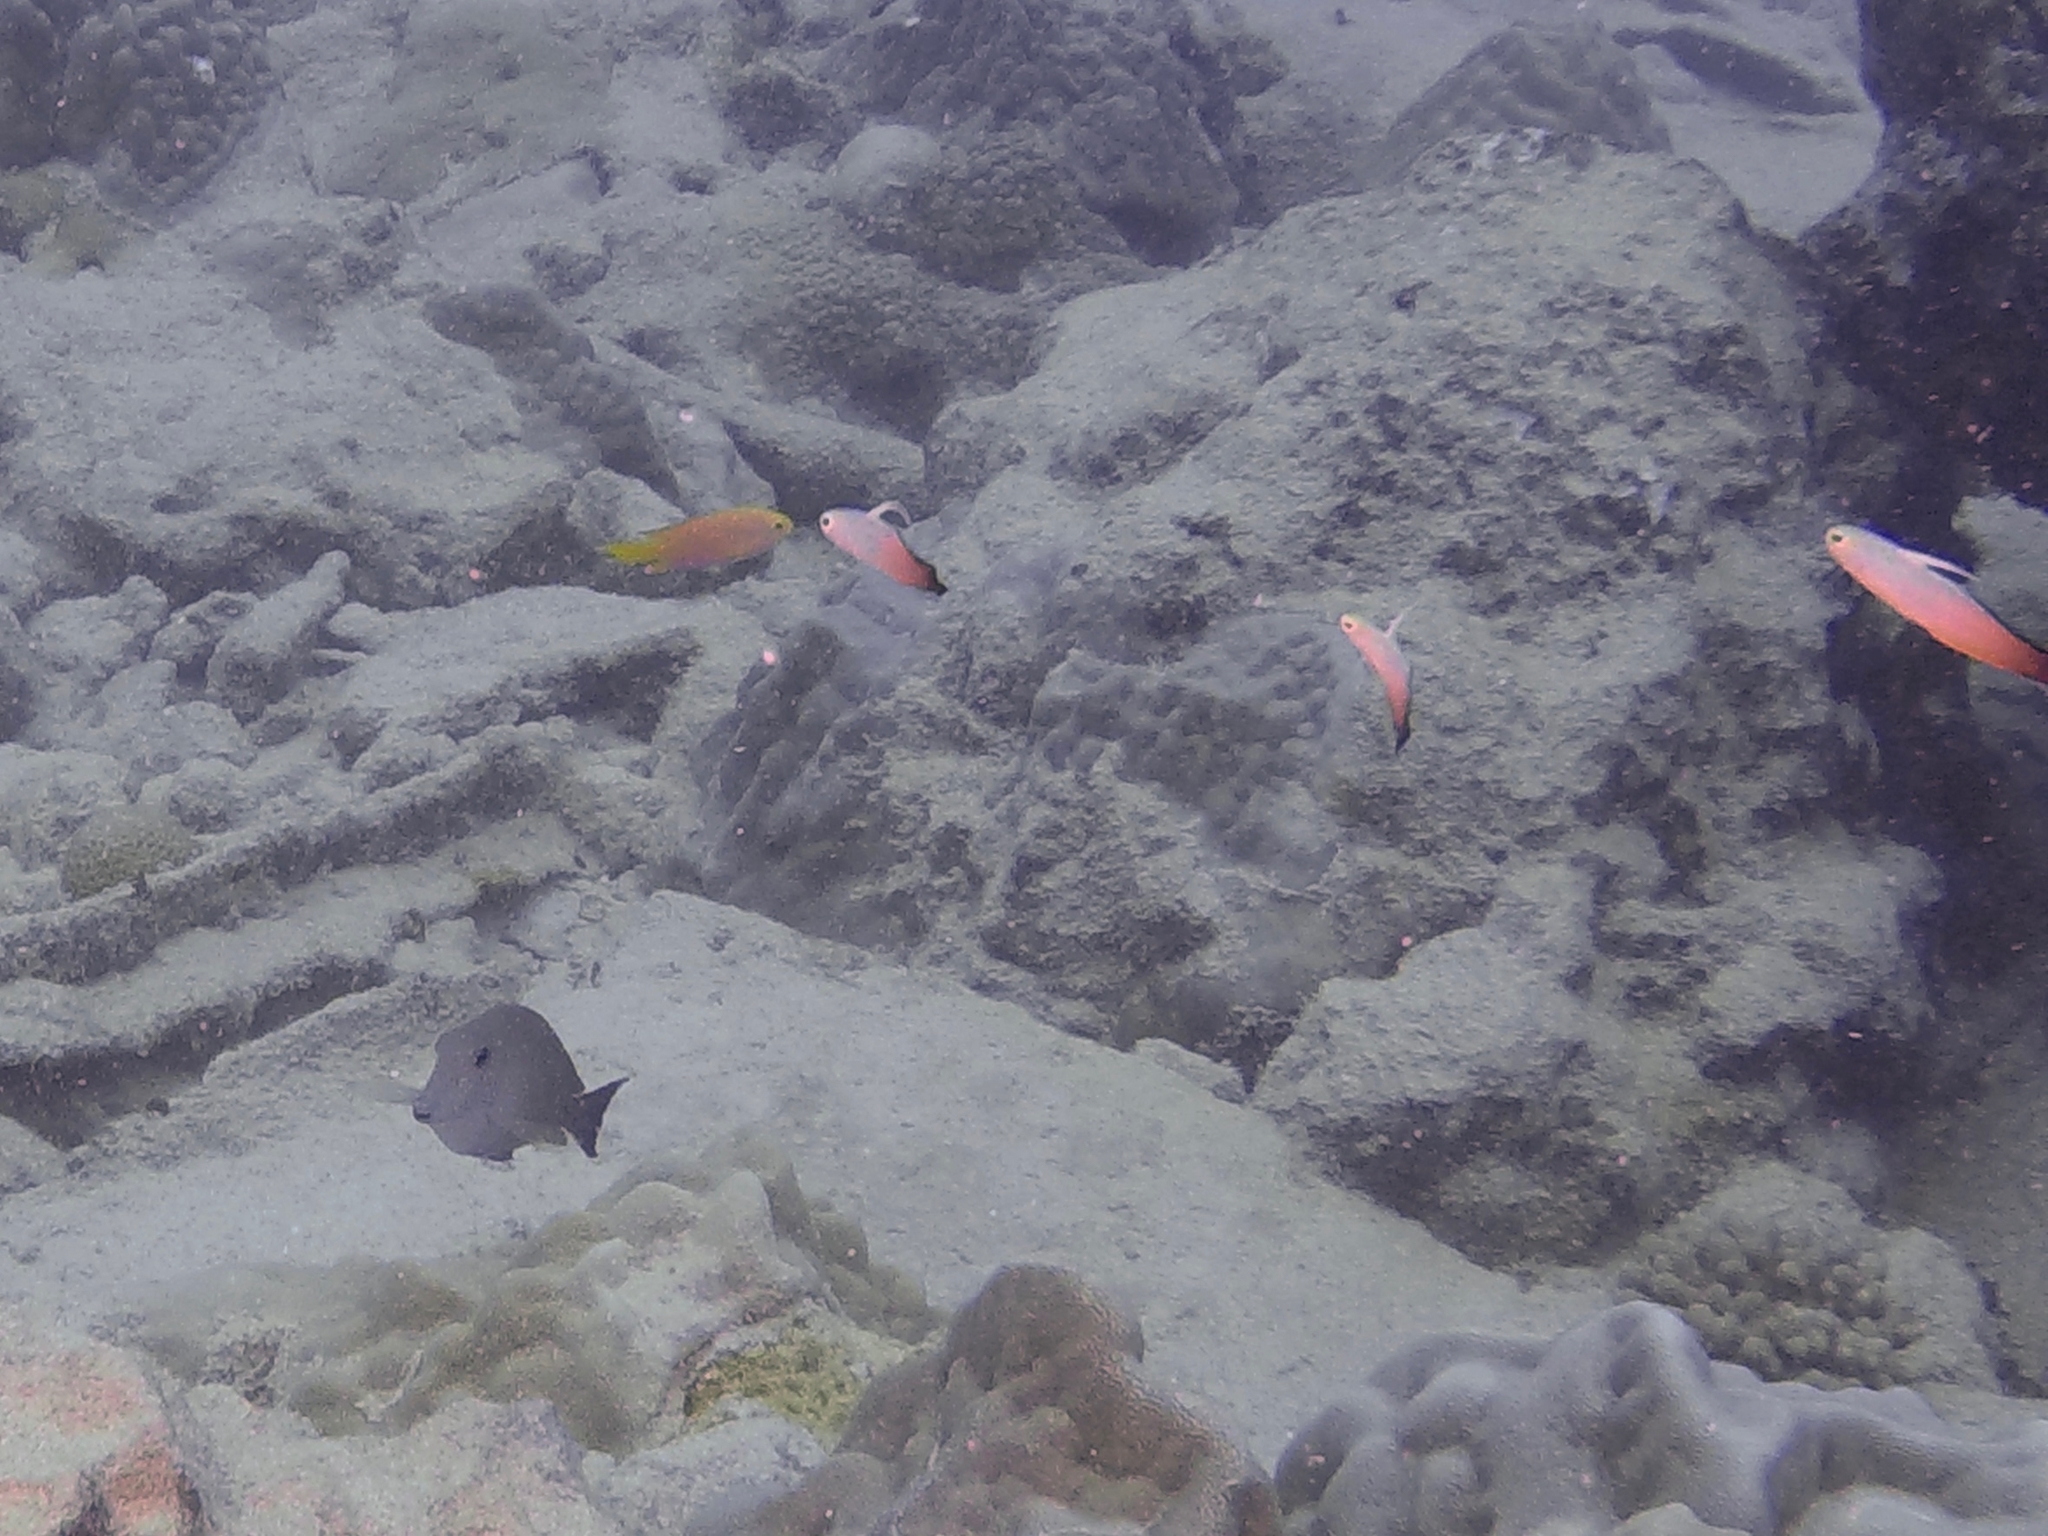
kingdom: Animalia
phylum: Chordata
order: Perciformes
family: Microdesmidae
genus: Nemateleotris
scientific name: Nemateleotris magnifica
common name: Fire goby
